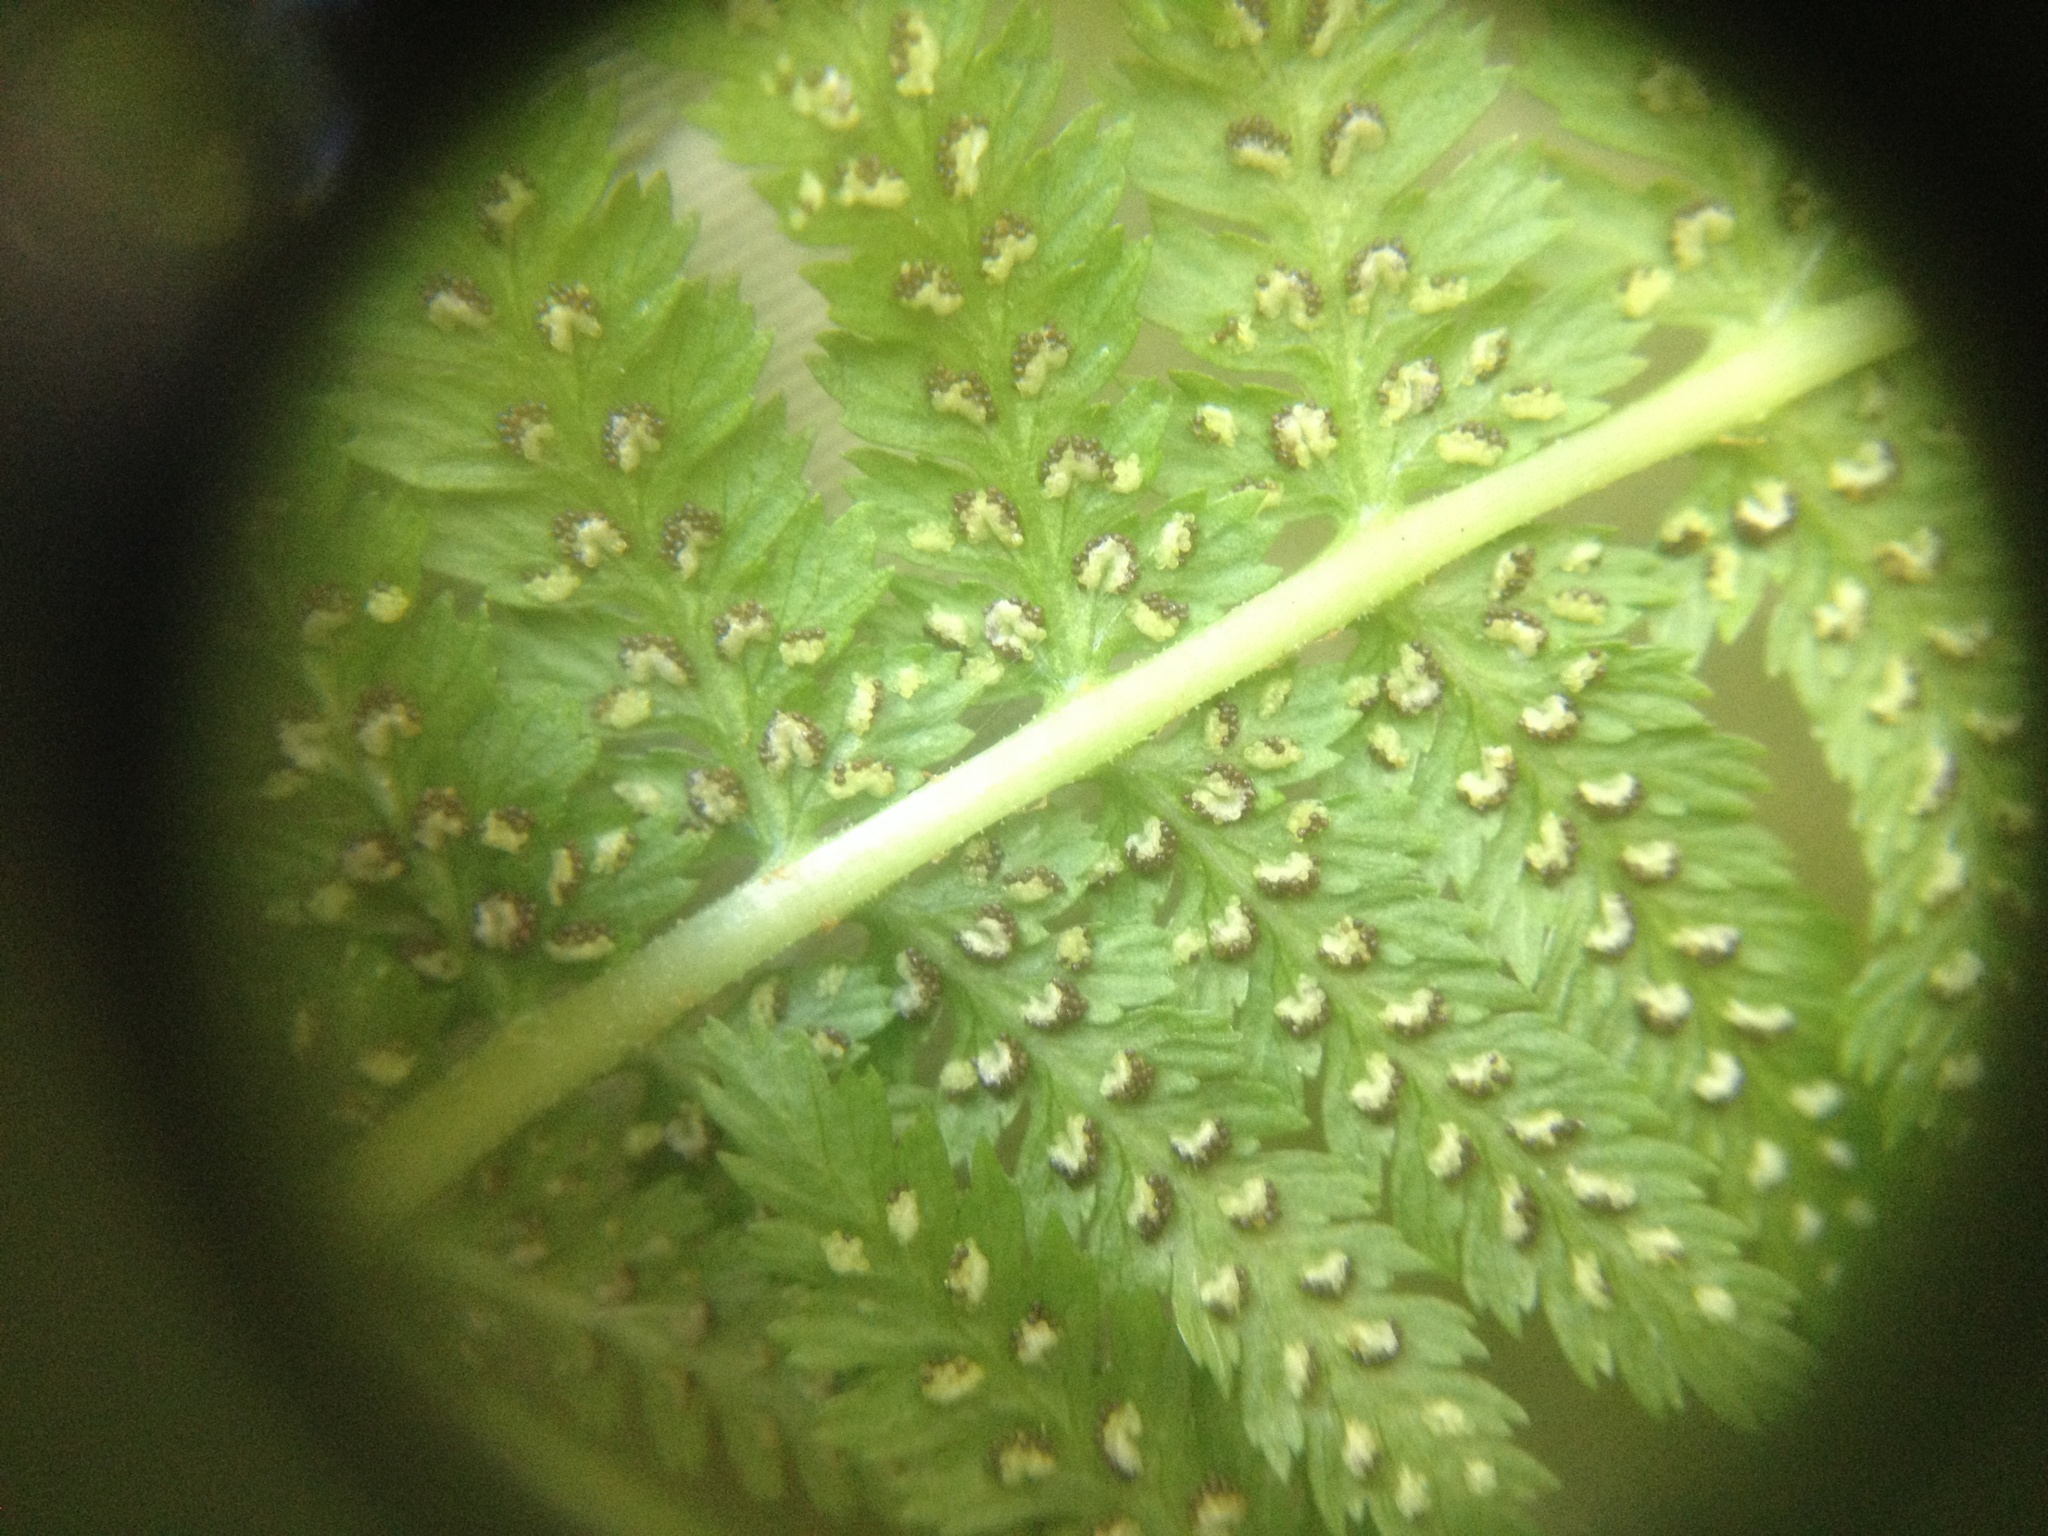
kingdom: Plantae
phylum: Tracheophyta
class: Polypodiopsida
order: Polypodiales
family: Athyriaceae
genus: Athyrium
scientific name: Athyrium cyclosorum
